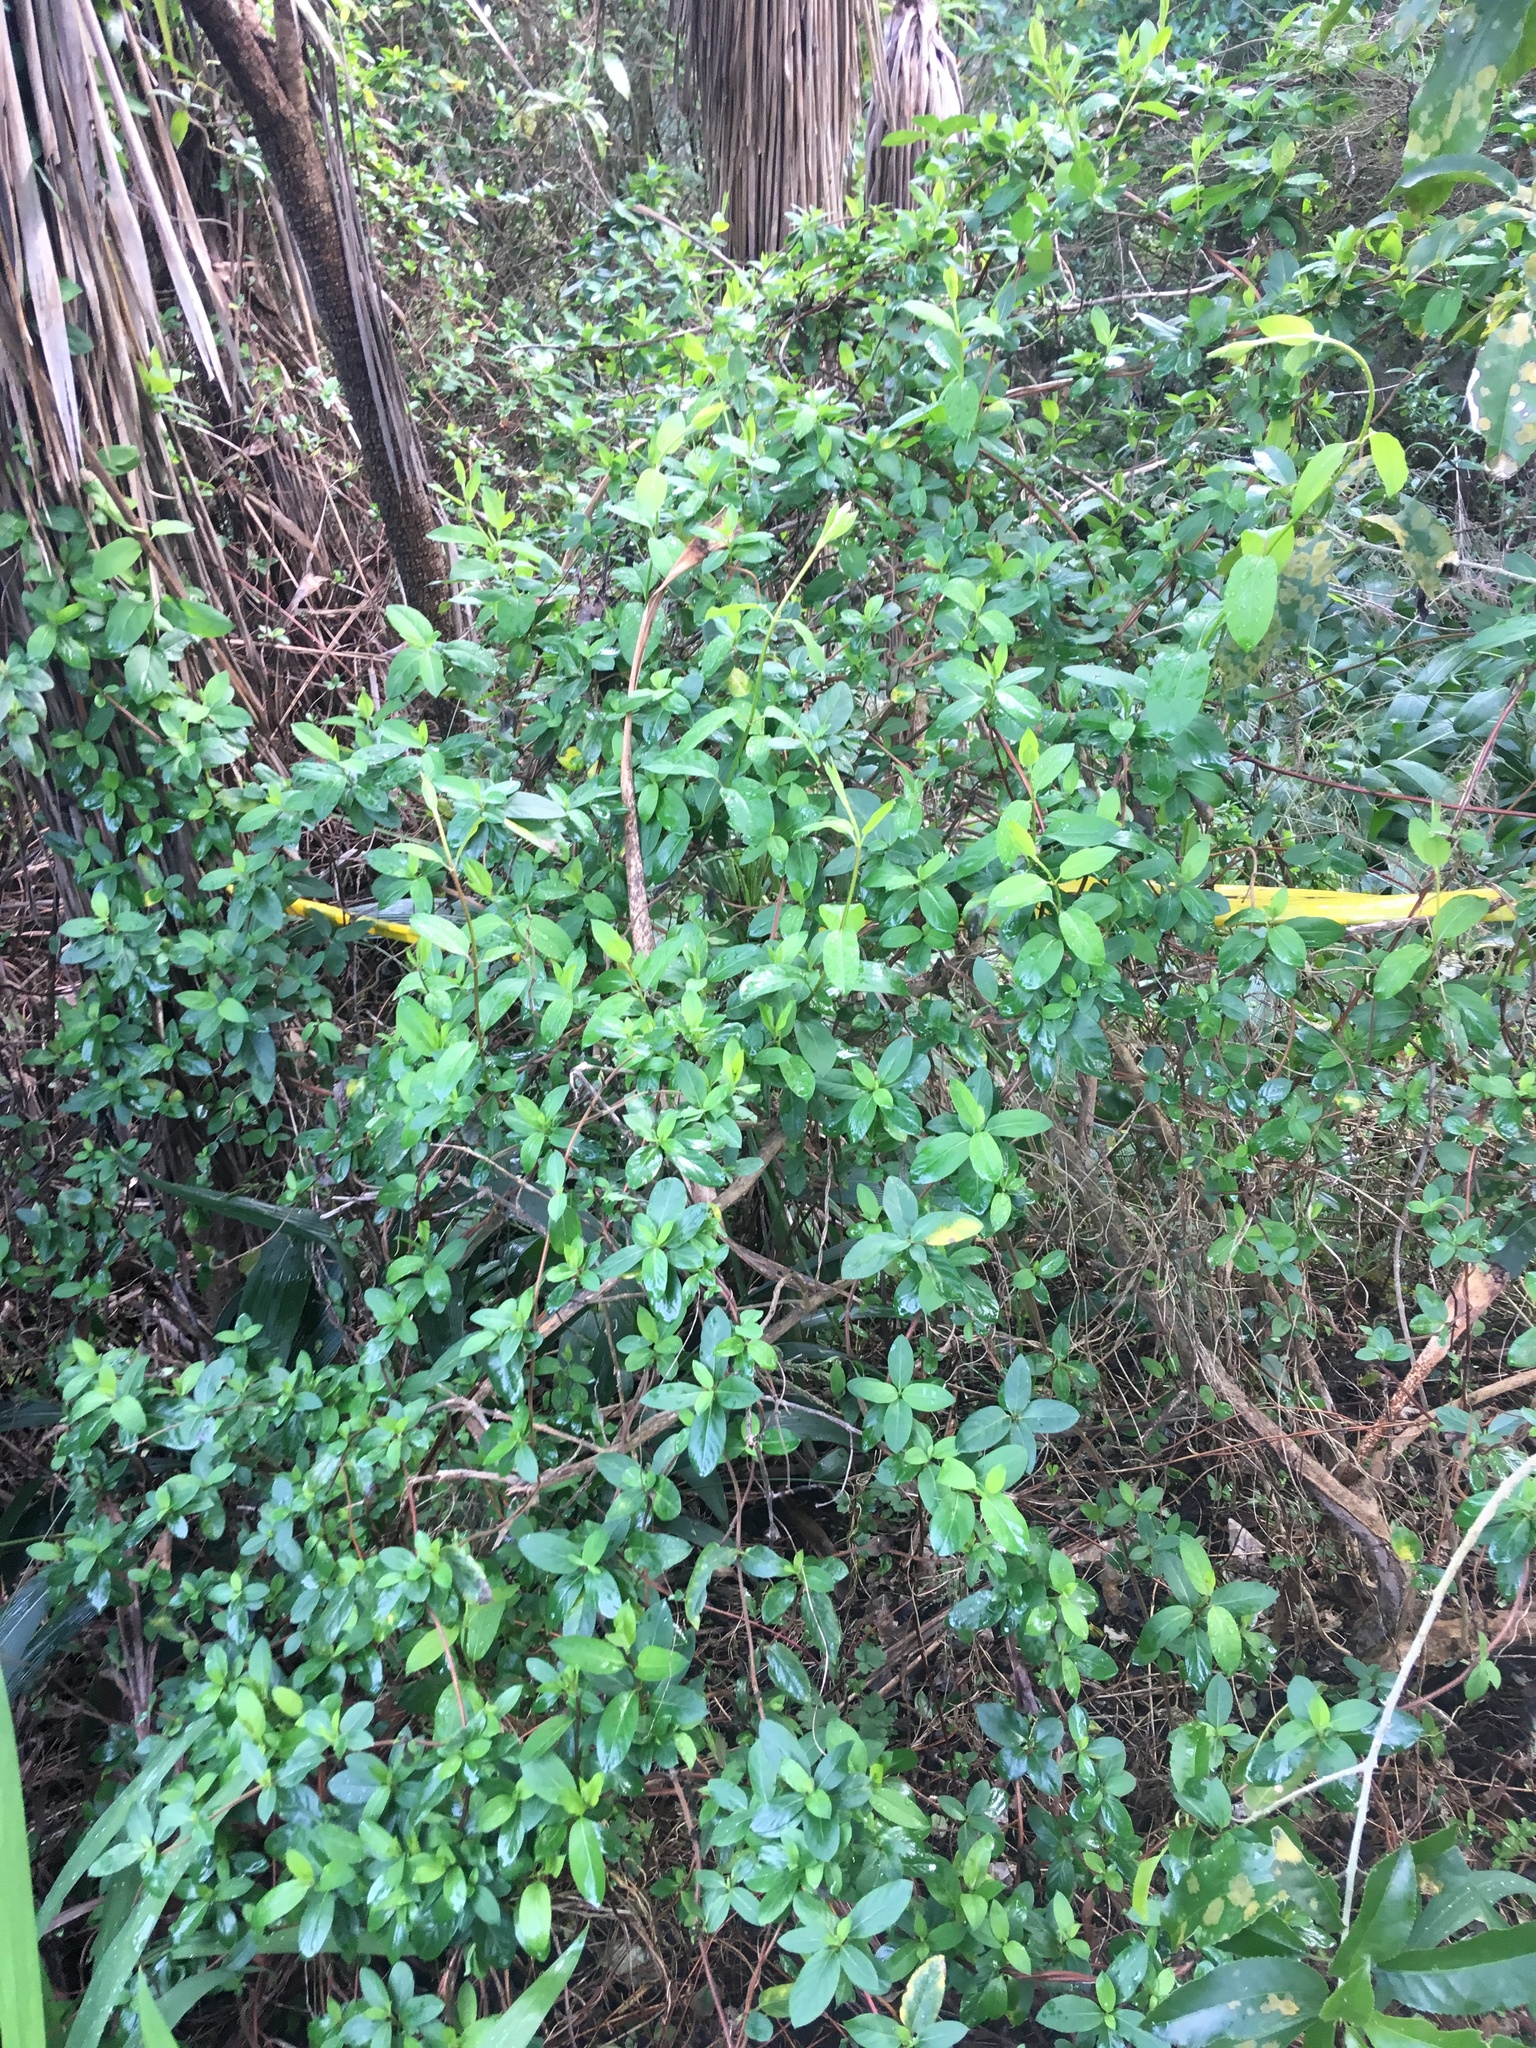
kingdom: Plantae
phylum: Tracheophyta
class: Magnoliopsida
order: Dipsacales
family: Caprifoliaceae
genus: Lonicera
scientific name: Lonicera japonica
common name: Japanese honeysuckle
